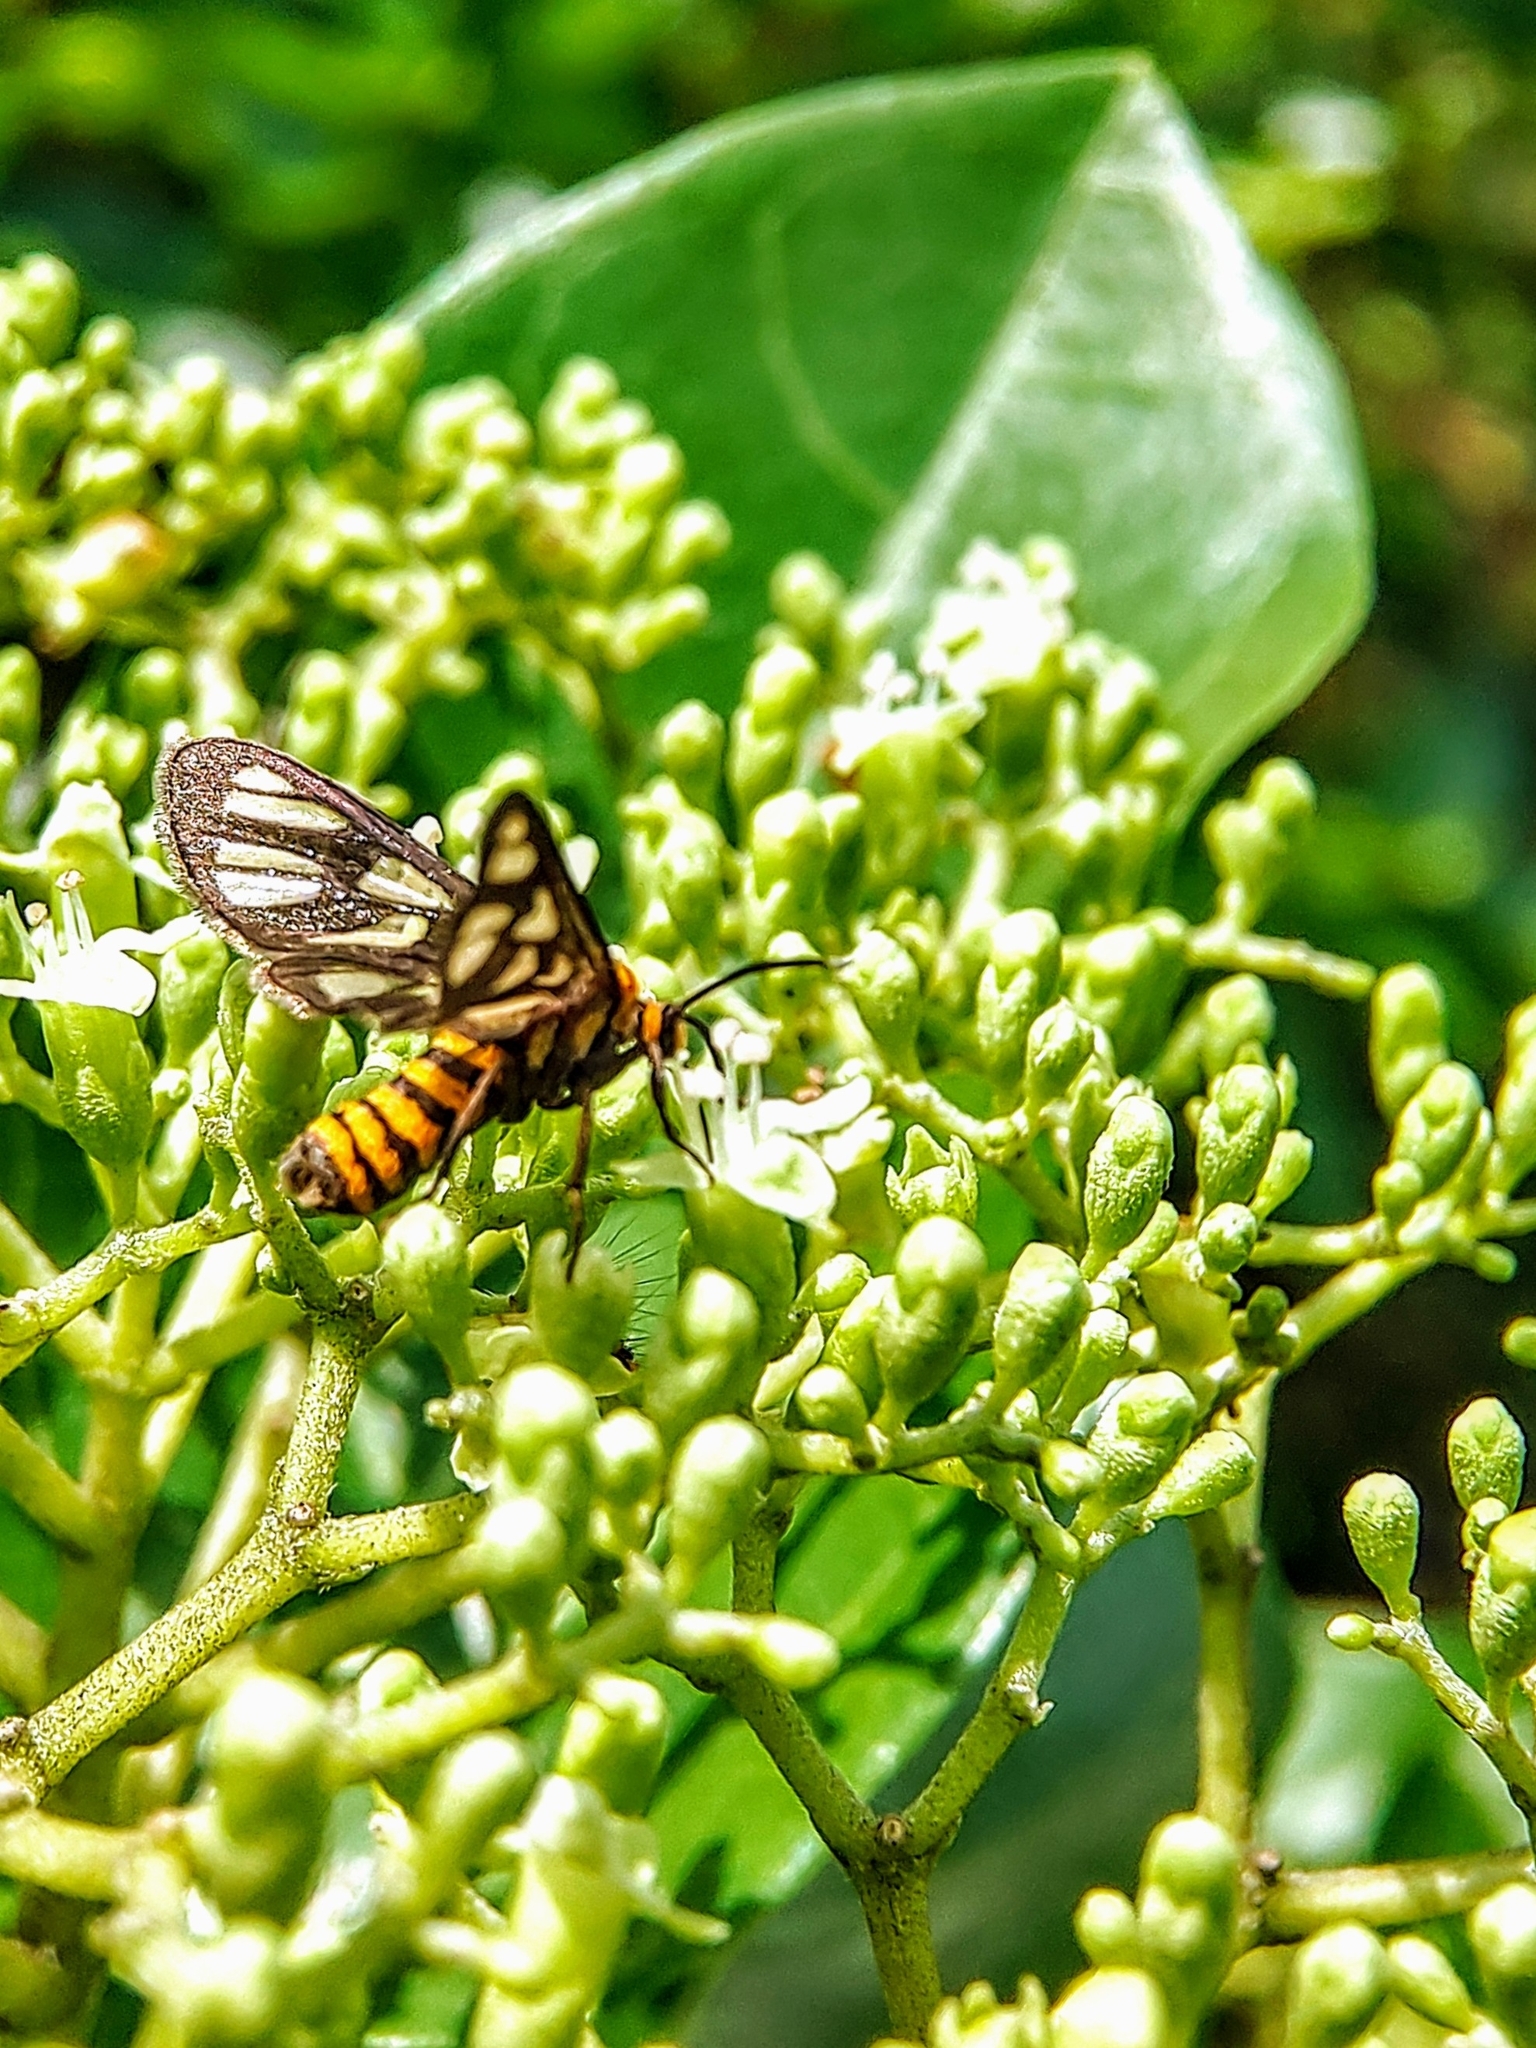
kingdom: Animalia
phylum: Arthropoda
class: Insecta
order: Lepidoptera
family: Erebidae
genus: Amata
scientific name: Amata huebneri
